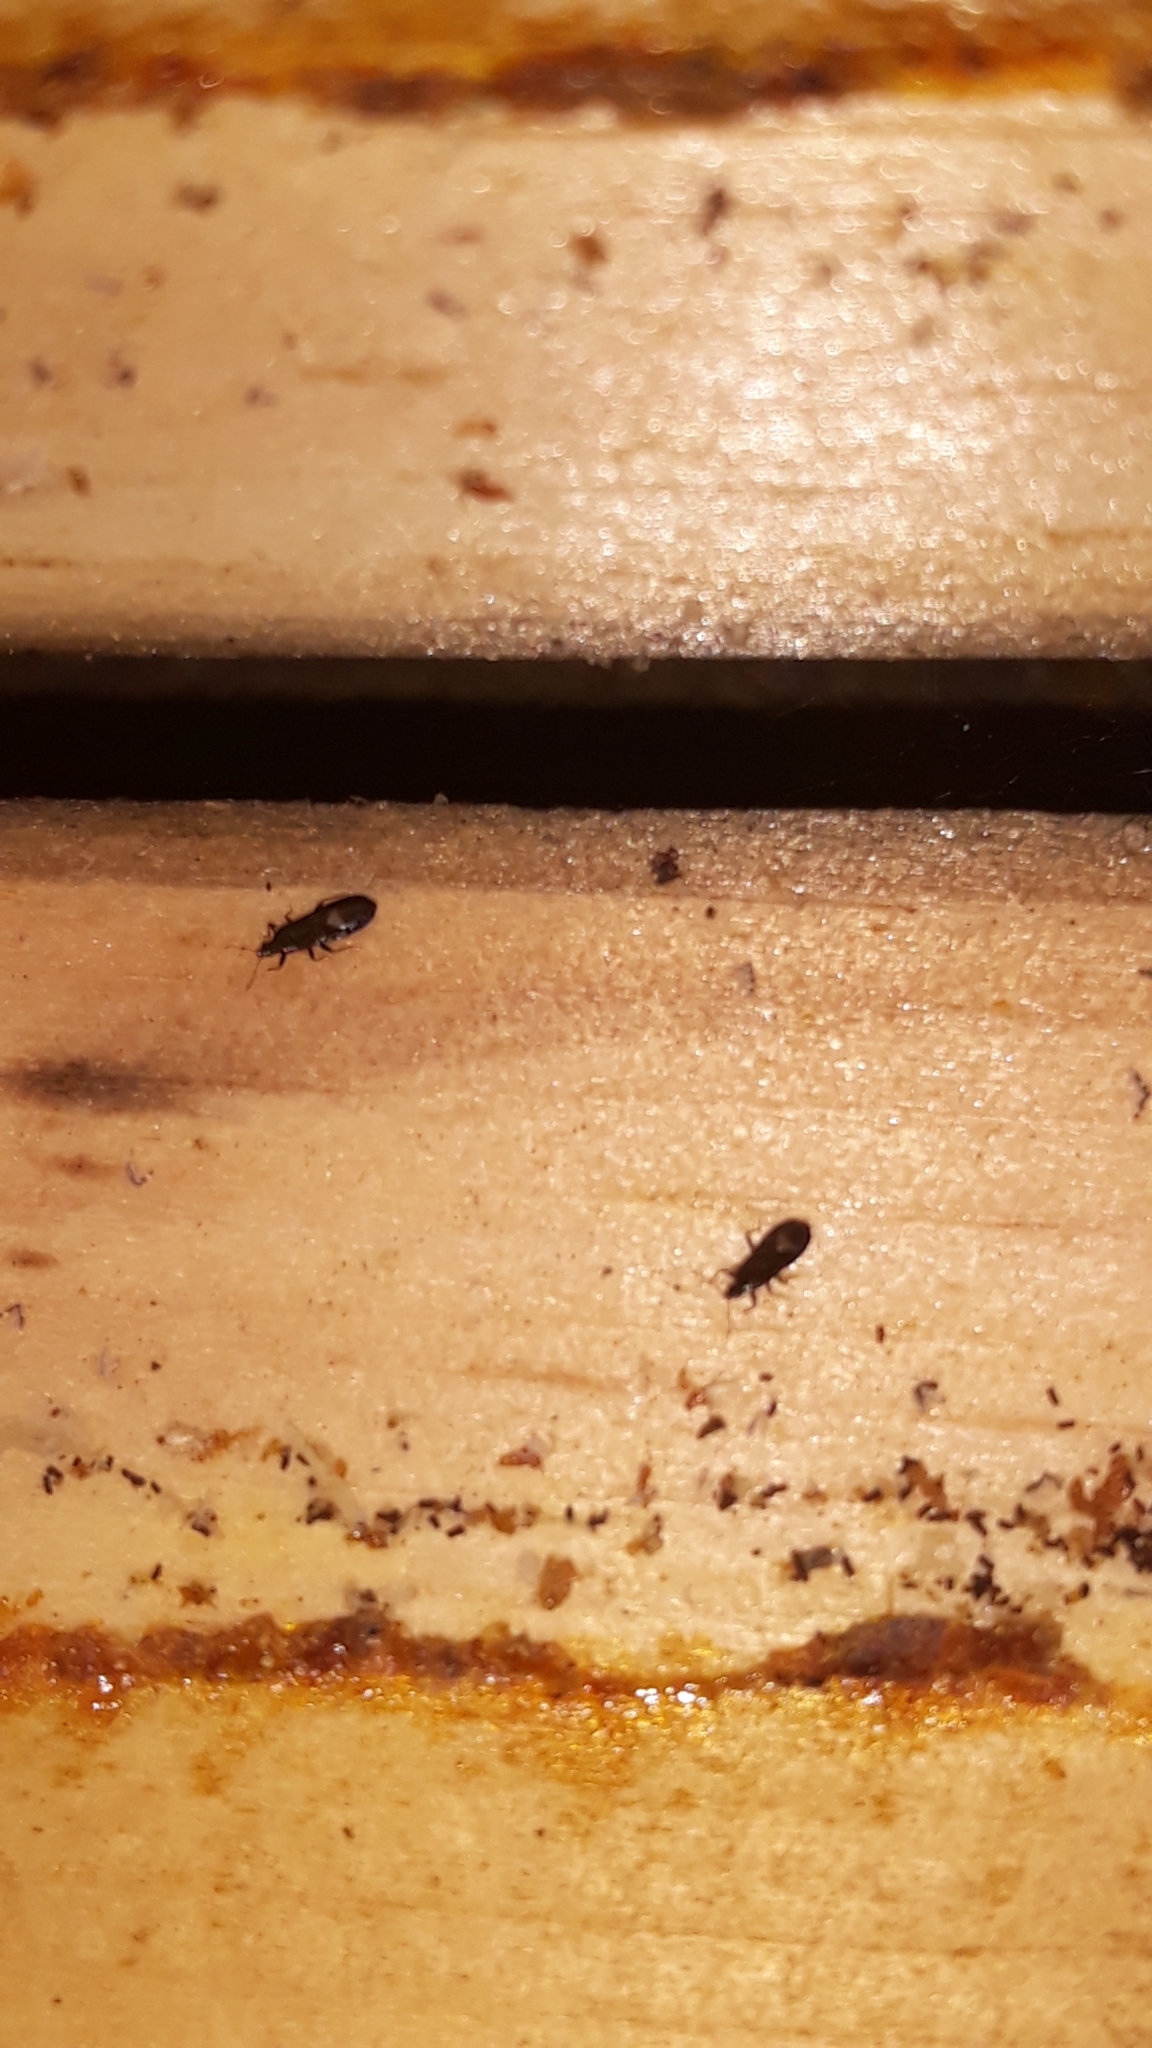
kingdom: Animalia
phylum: Arthropoda
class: Insecta
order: Hemiptera
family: Anthocoridae
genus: Dufouriellus
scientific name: Dufouriellus ater
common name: Minute pirate bug
